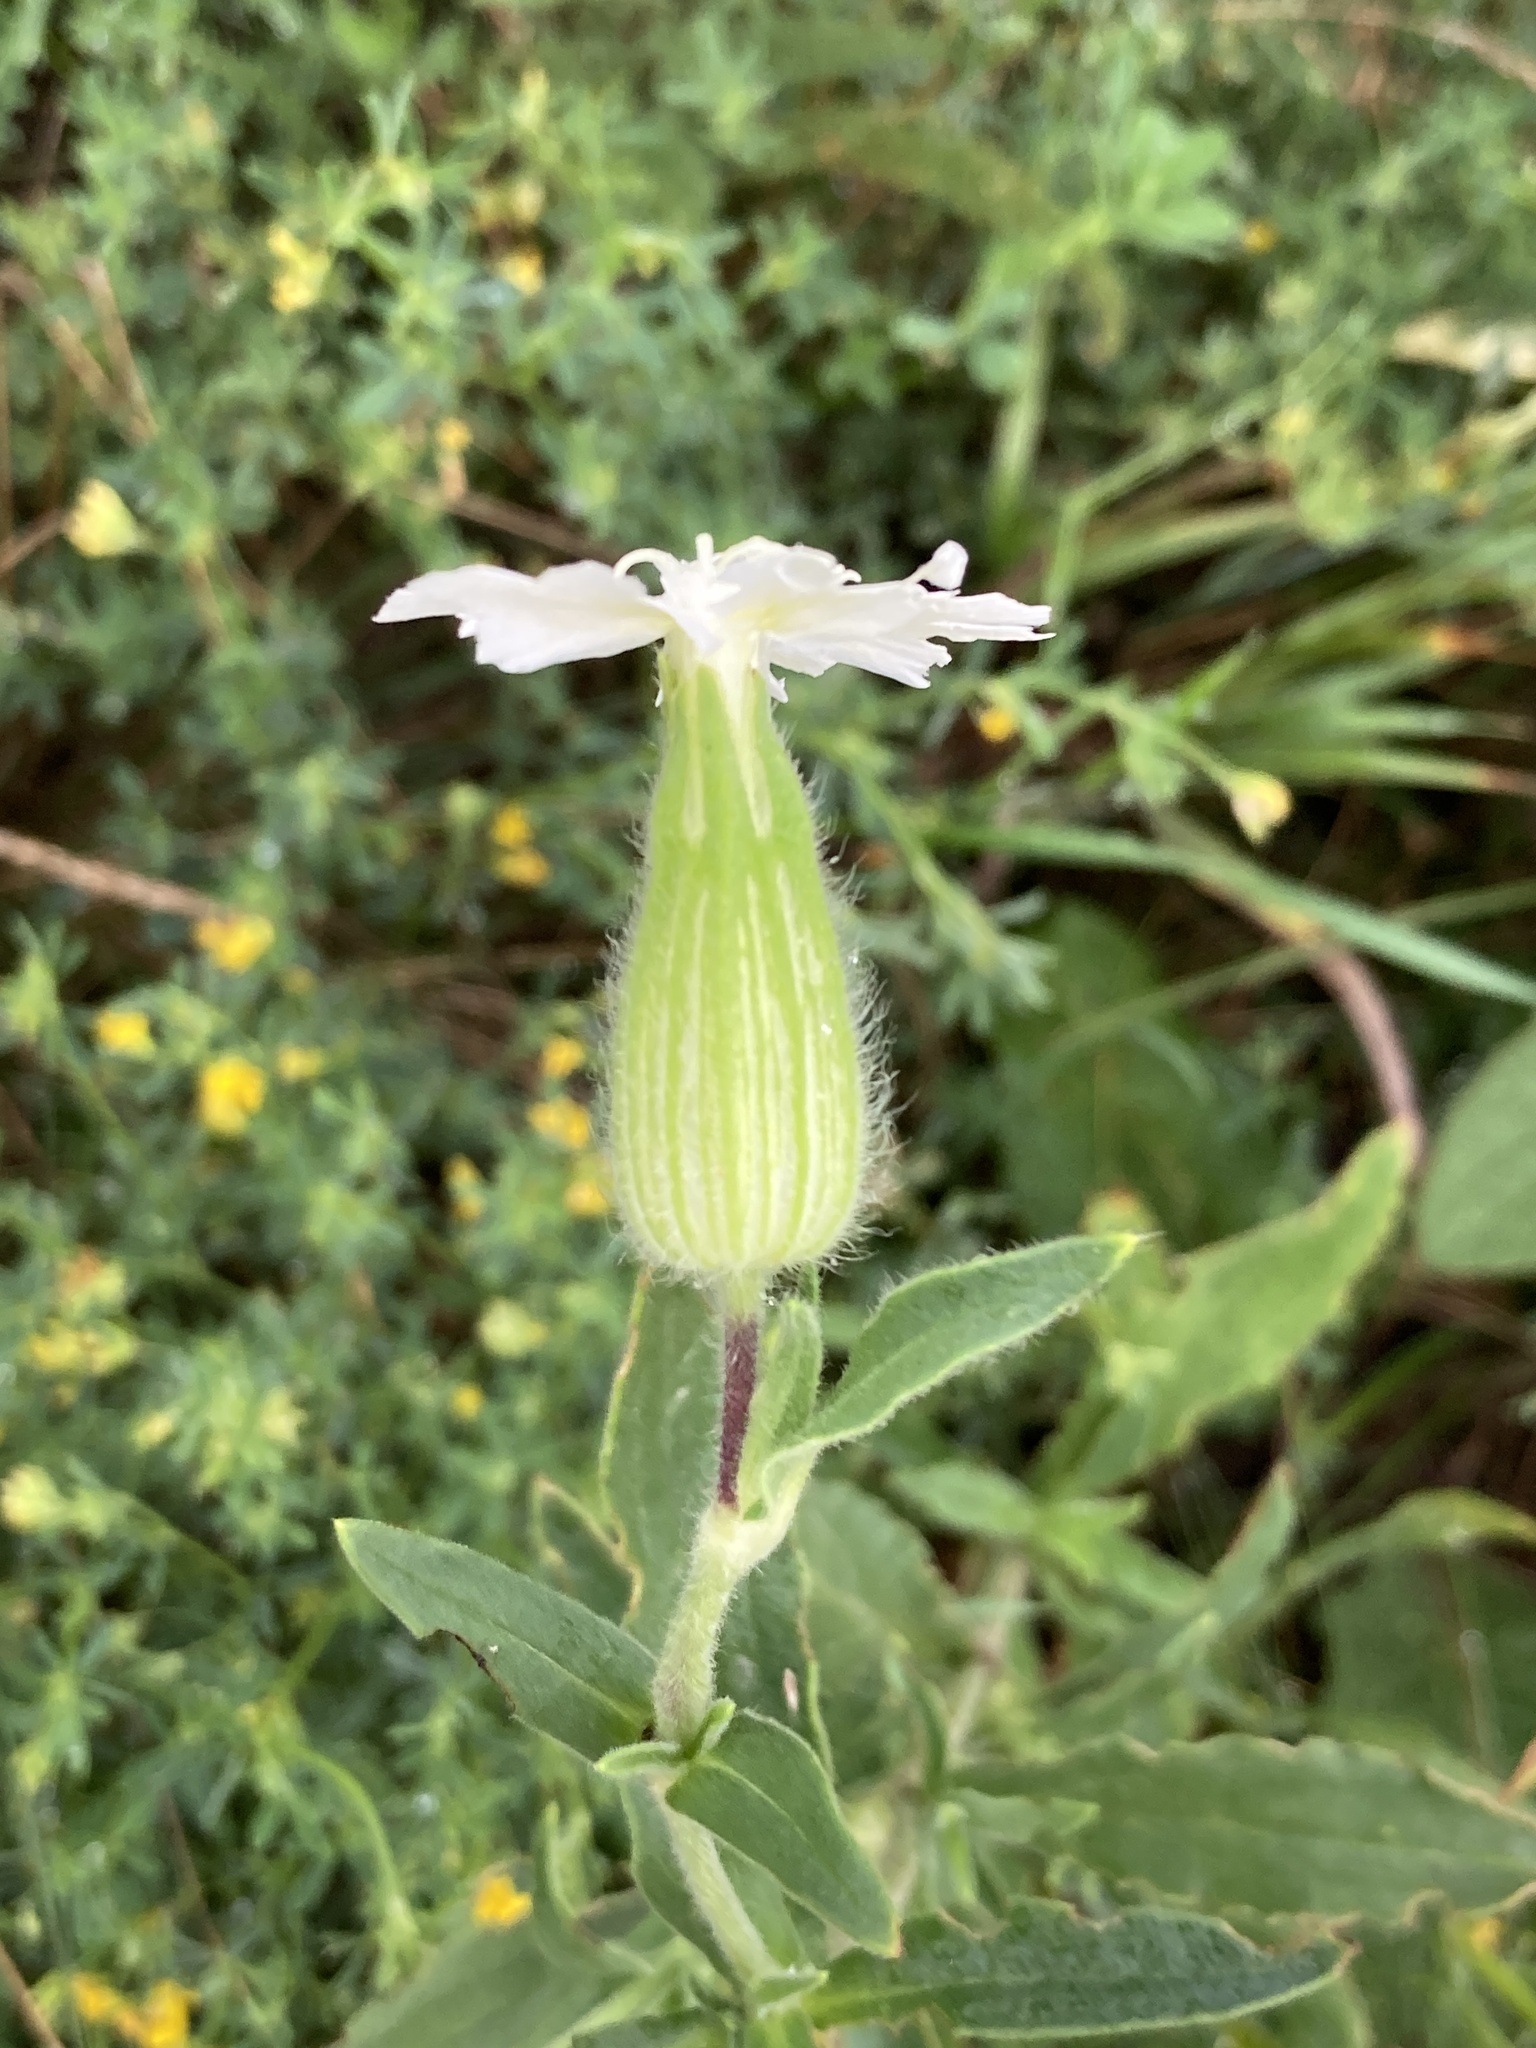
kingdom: Plantae
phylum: Tracheophyta
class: Magnoliopsida
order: Caryophyllales
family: Caryophyllaceae
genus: Silene
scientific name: Silene latifolia
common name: White campion
